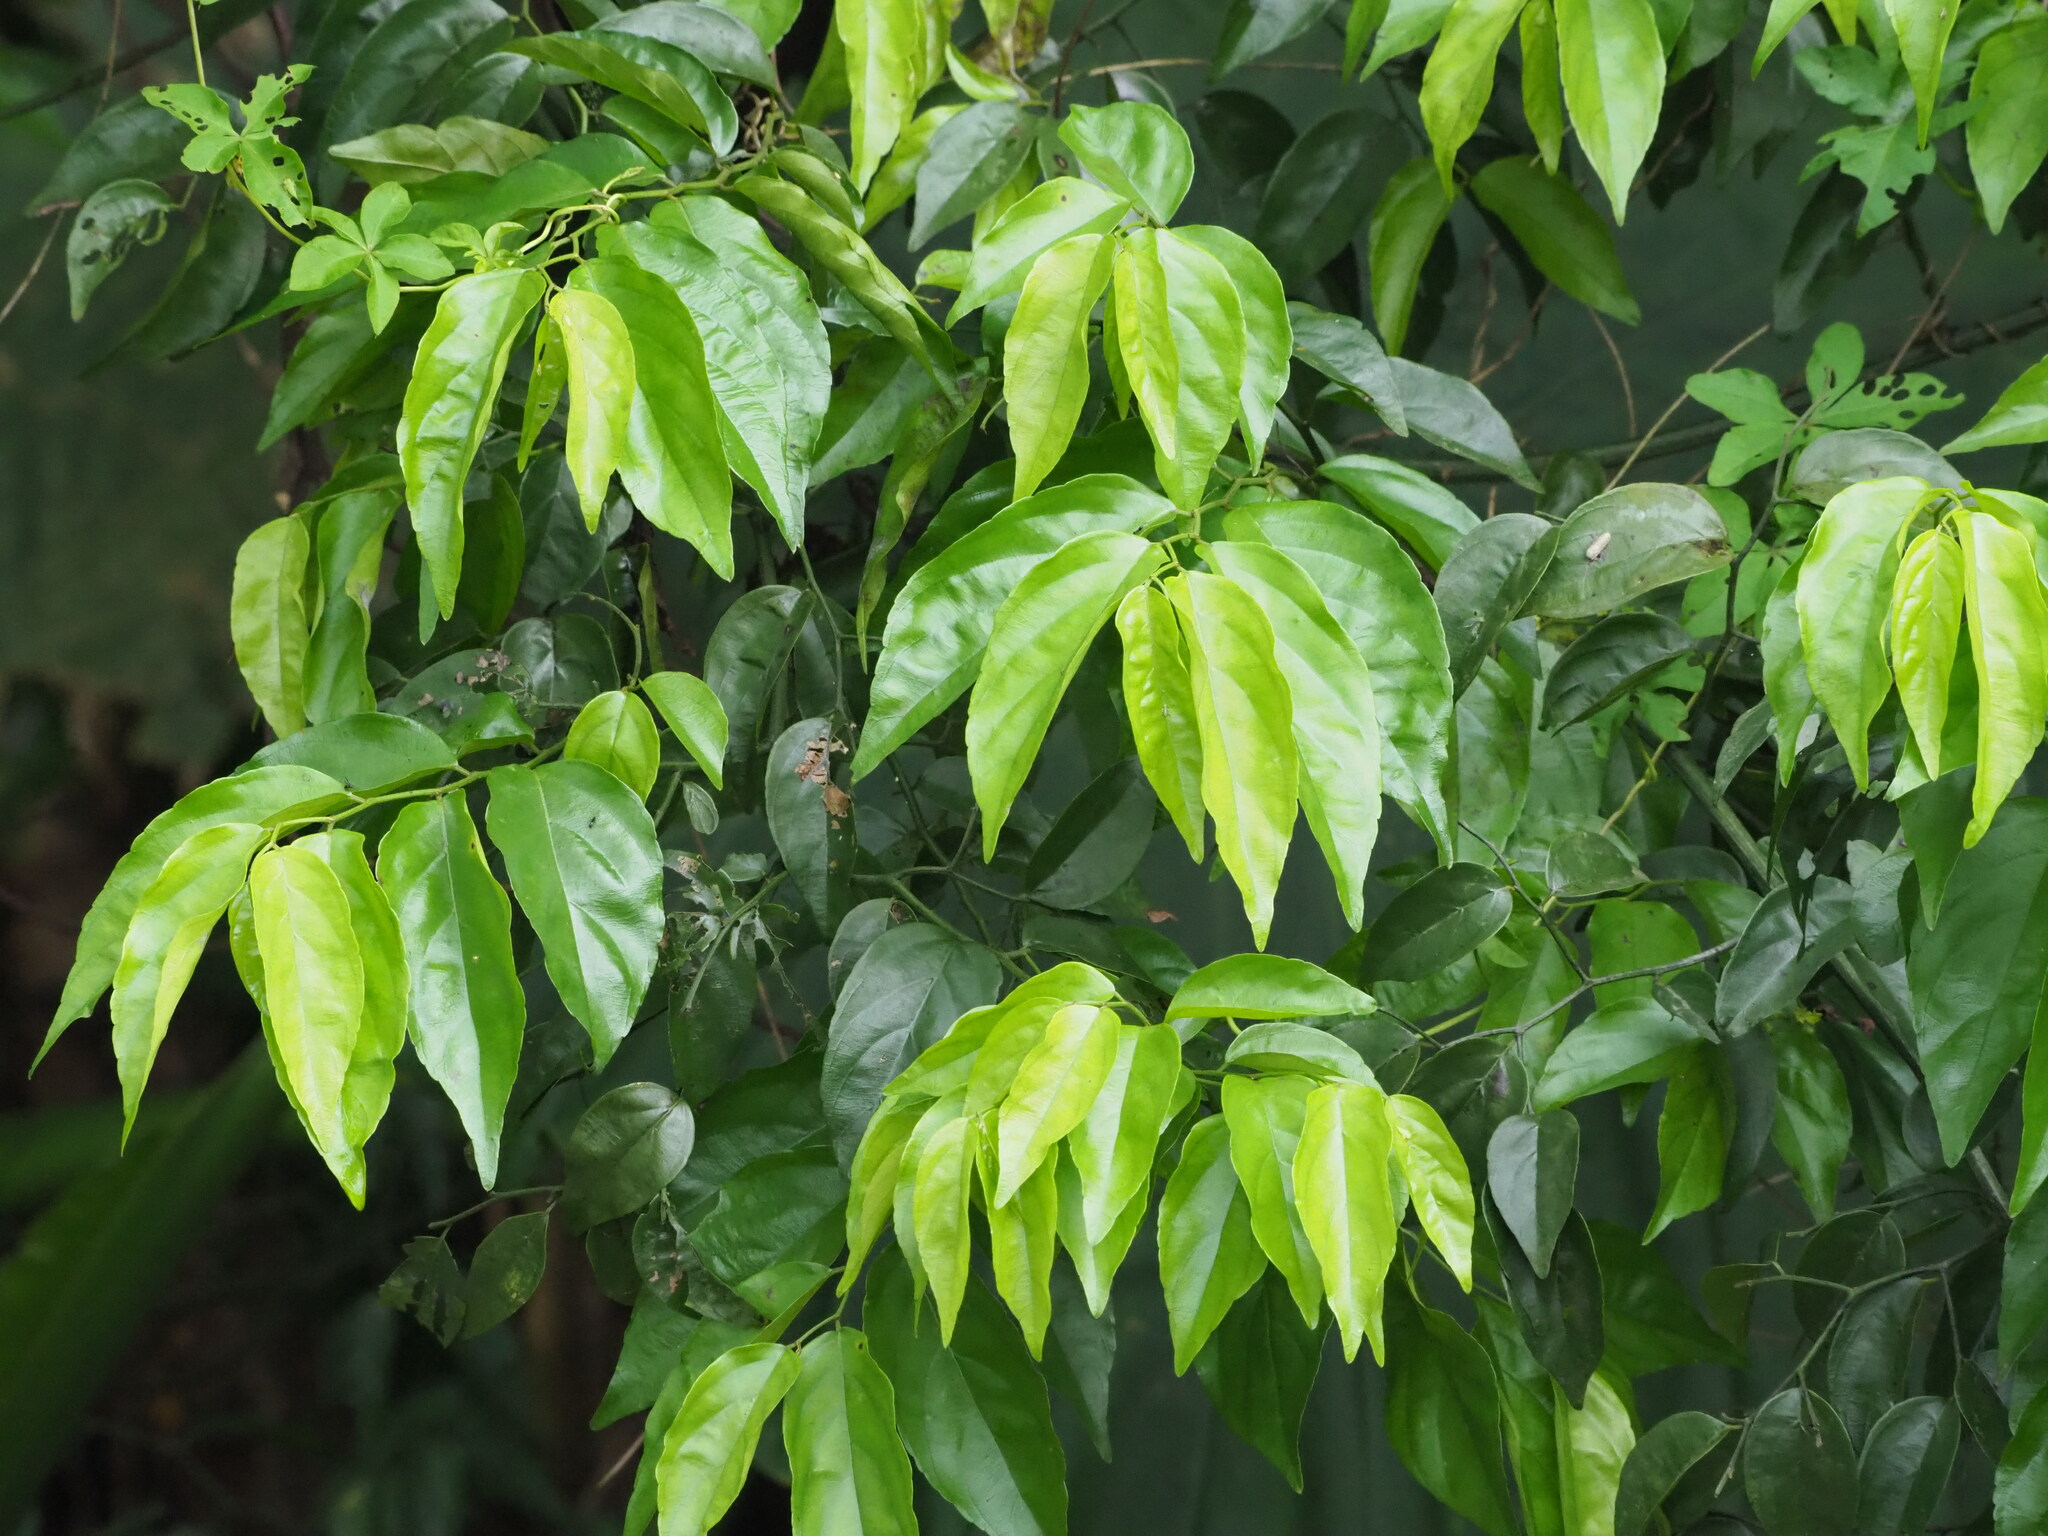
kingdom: Plantae
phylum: Tracheophyta
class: Magnoliopsida
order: Rosales
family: Rhamnaceae
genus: Ventilago
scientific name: Ventilago leiocarpa
